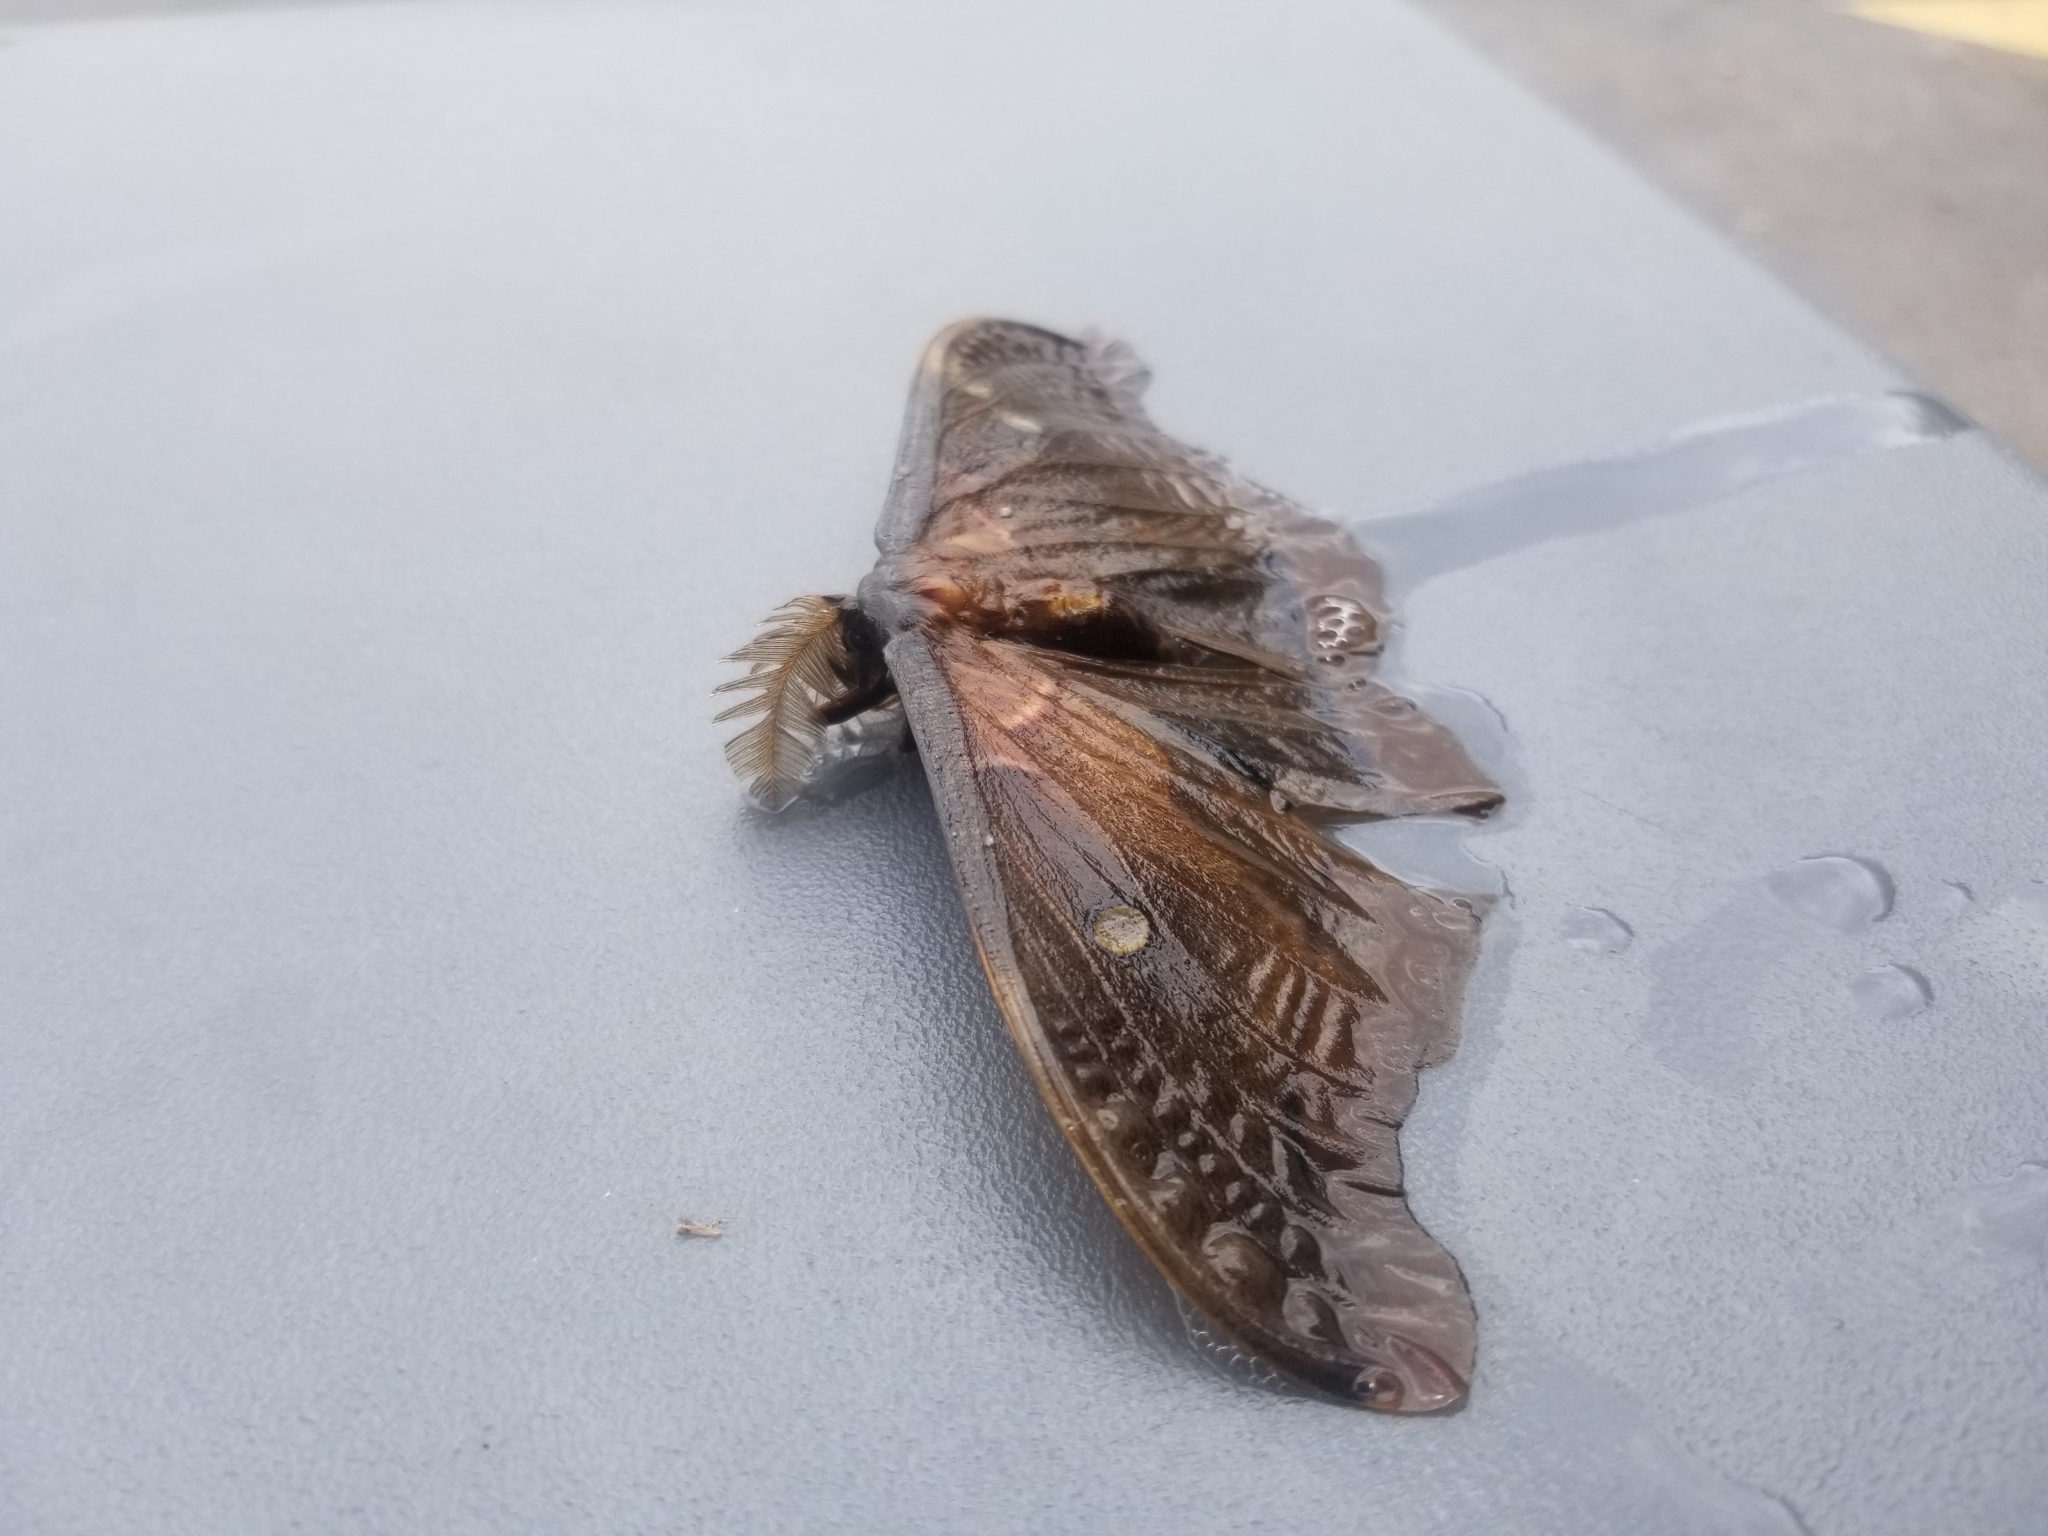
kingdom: Animalia
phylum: Arthropoda
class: Insecta
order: Lepidoptera
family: Saturniidae
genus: Antheraea
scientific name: Antheraea polyphemus
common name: Polyphemus moth
